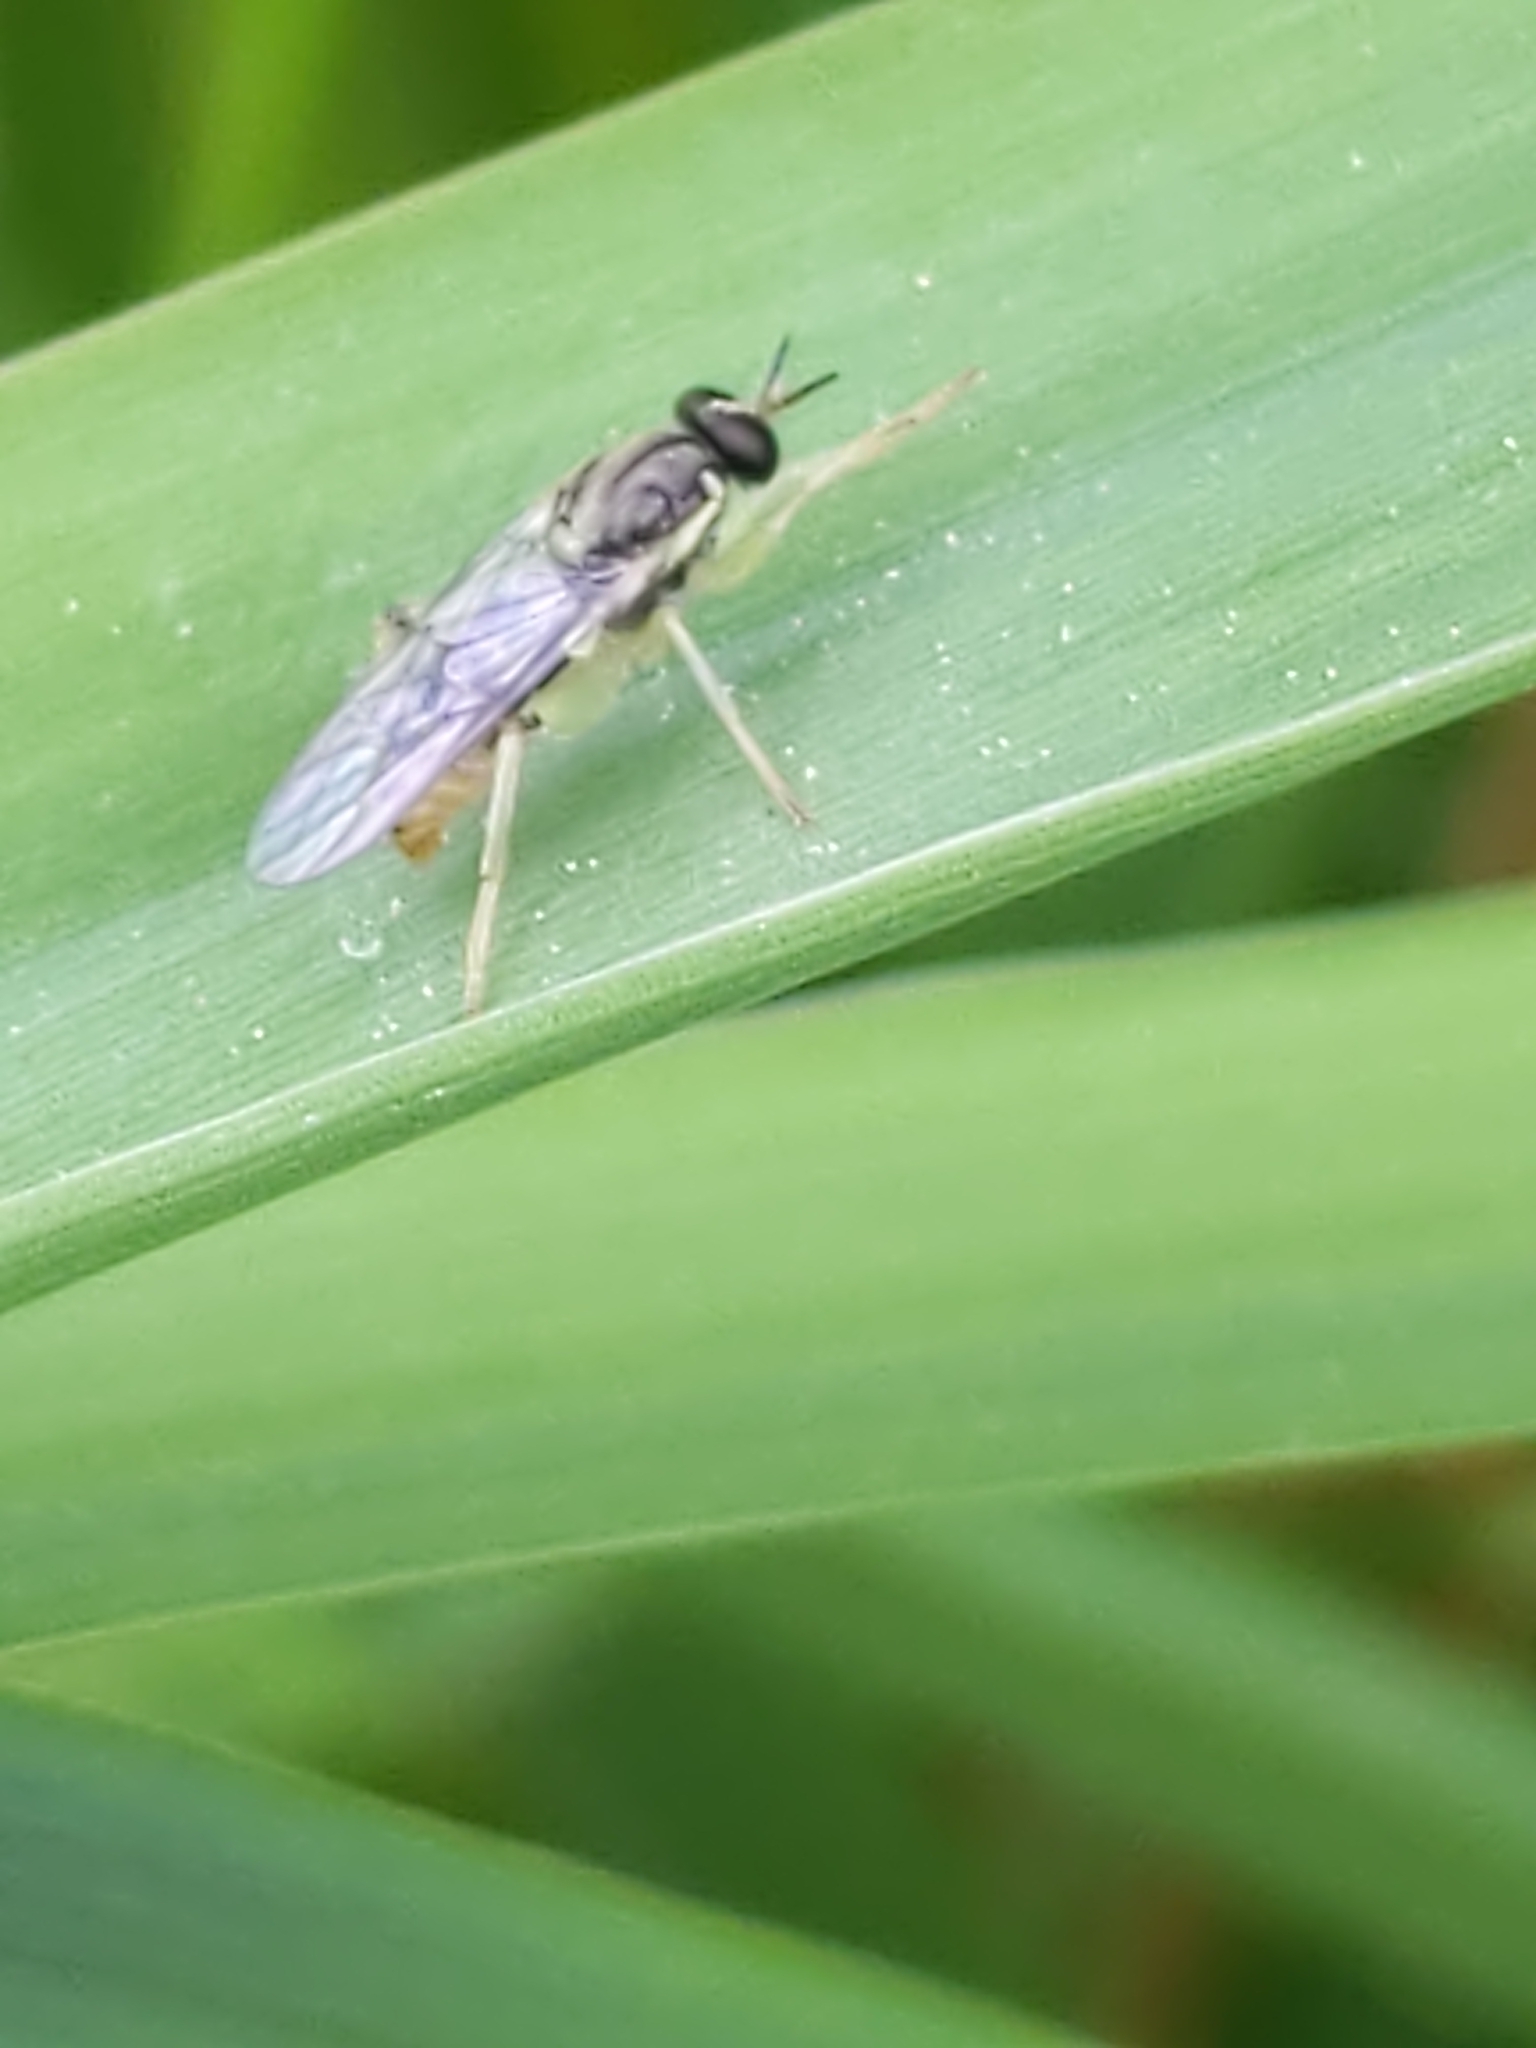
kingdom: Animalia
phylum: Arthropoda
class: Insecta
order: Diptera
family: Xylomyidae
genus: Solva
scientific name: Solva pallipes
